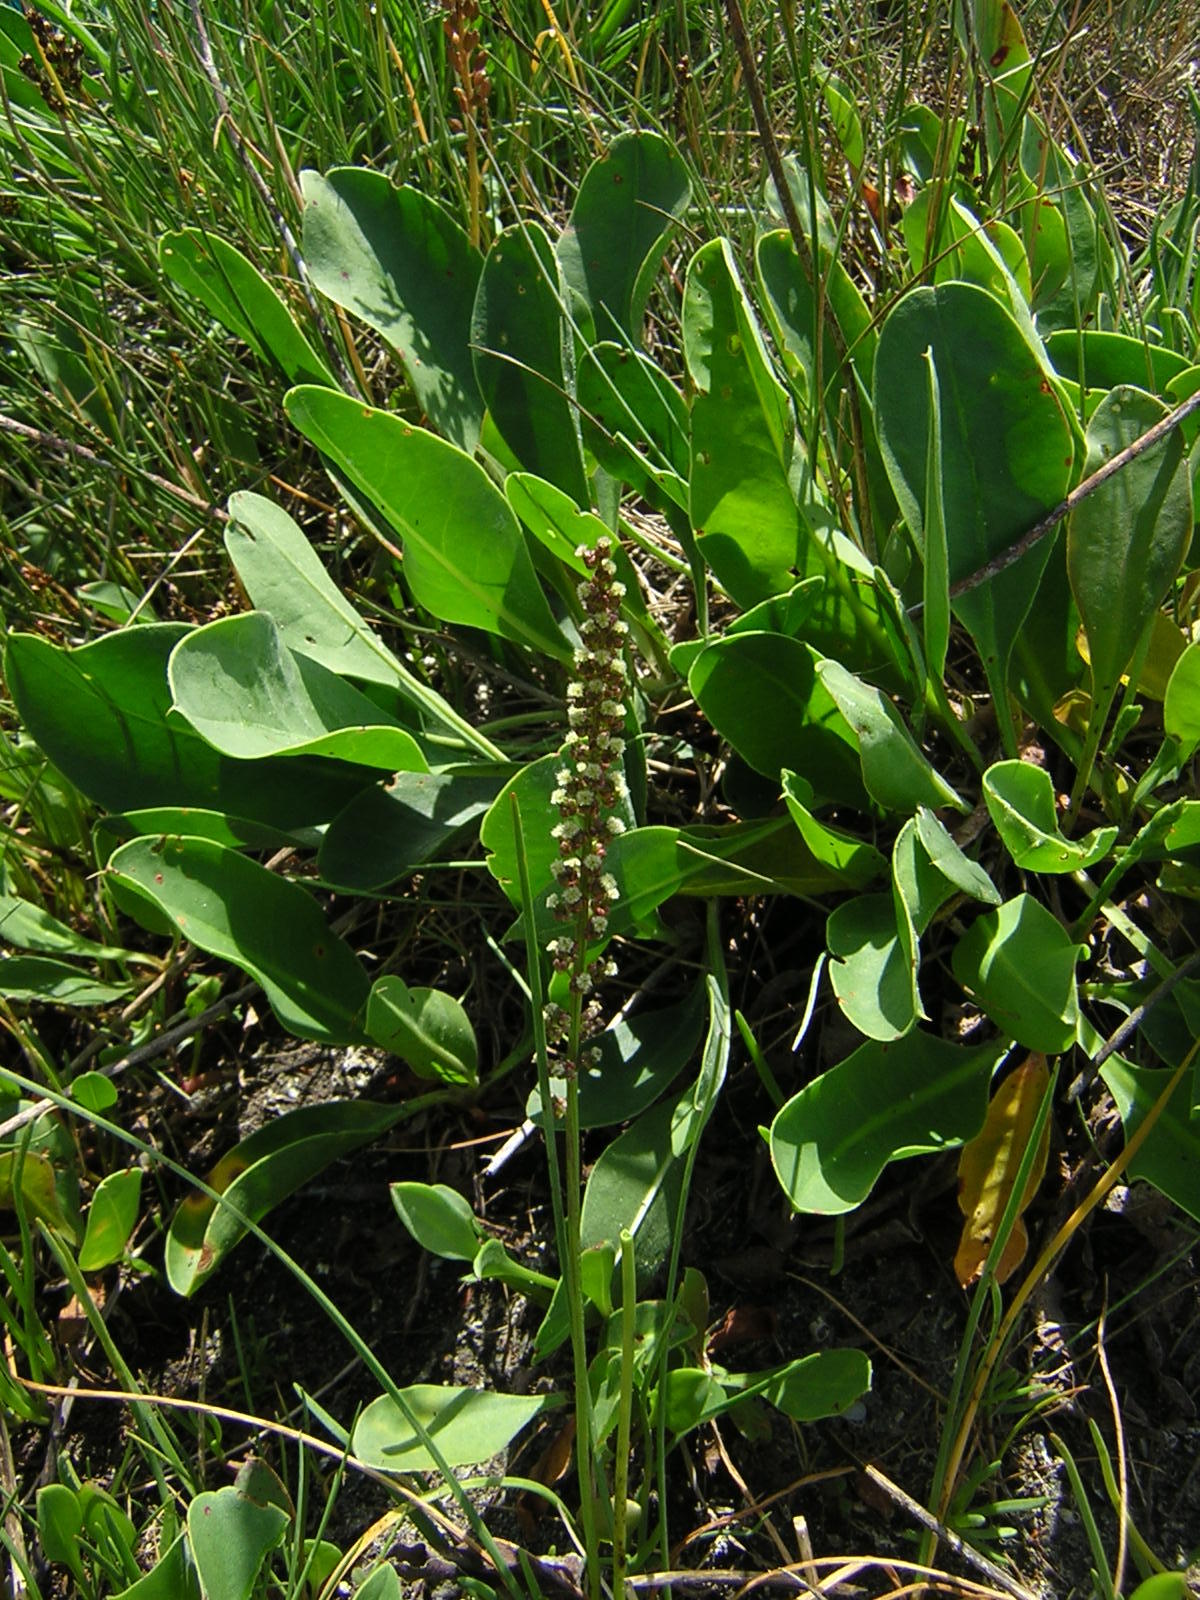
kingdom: Plantae
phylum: Tracheophyta
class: Liliopsida
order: Alismatales
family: Juncaginaceae
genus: Triglochin
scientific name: Triglochin maritima
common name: Sea arrowgrass
